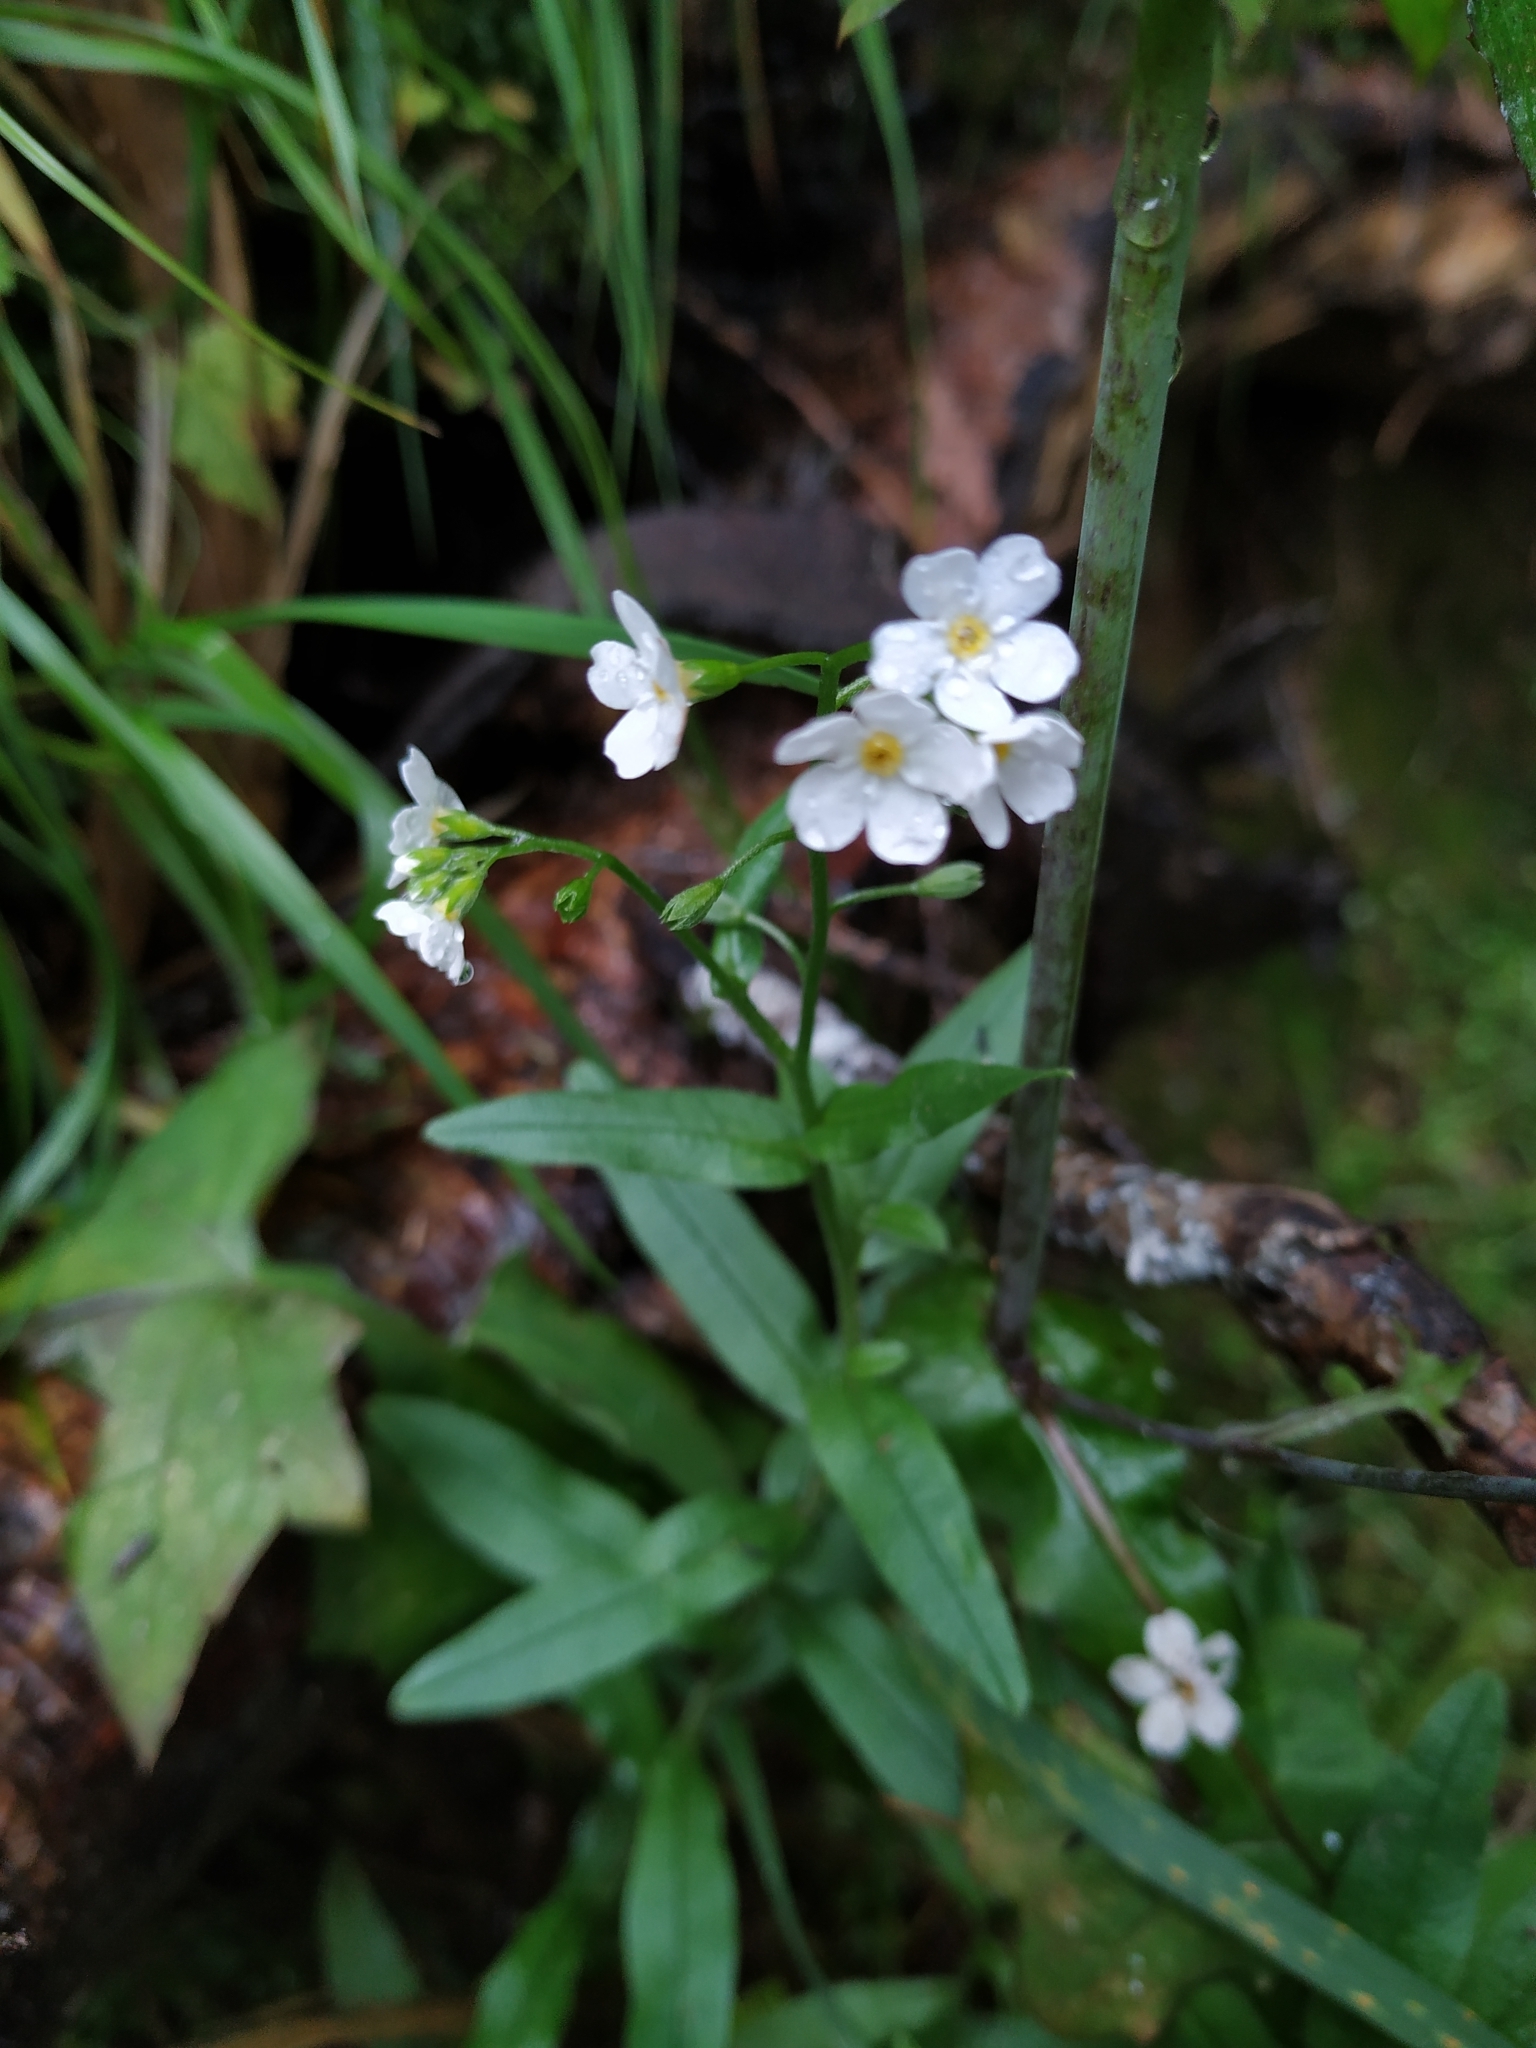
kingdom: Plantae
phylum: Tracheophyta
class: Magnoliopsida
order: Boraginales
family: Boraginaceae
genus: Myosotis
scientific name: Myosotis scorpioides
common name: Water forget-me-not
